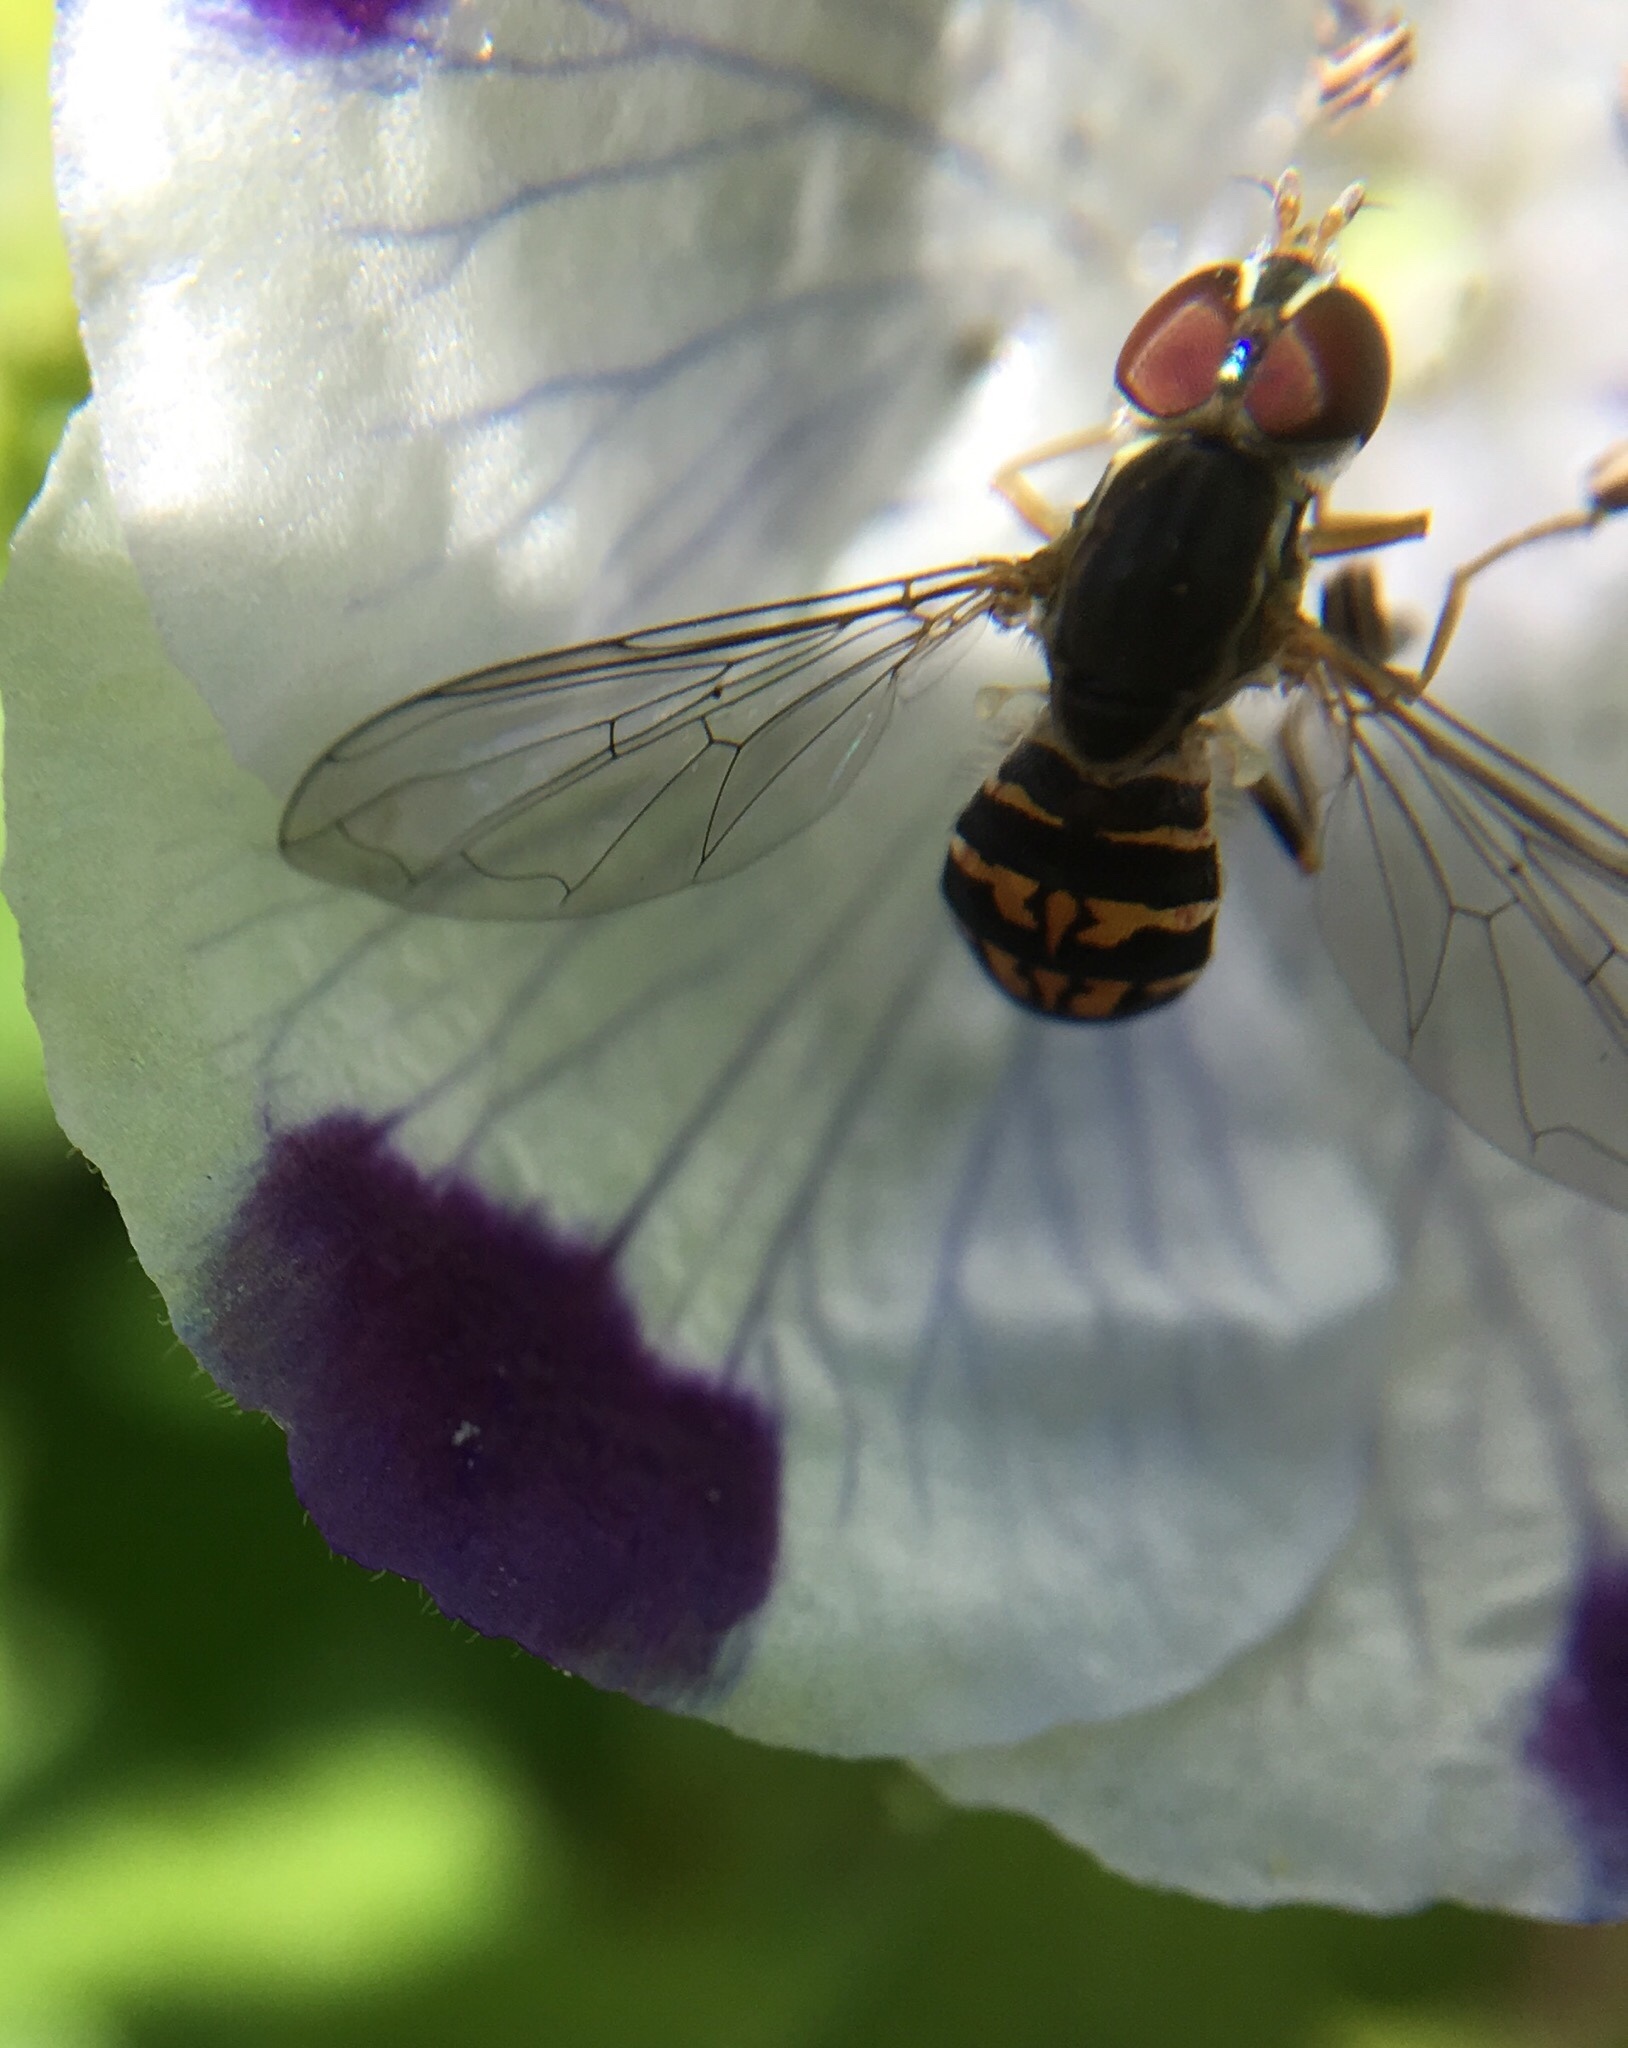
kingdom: Animalia
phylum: Arthropoda
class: Insecta
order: Diptera
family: Syrphidae
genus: Toxomerus
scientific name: Toxomerus geminatus
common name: Eastern calligrapher
